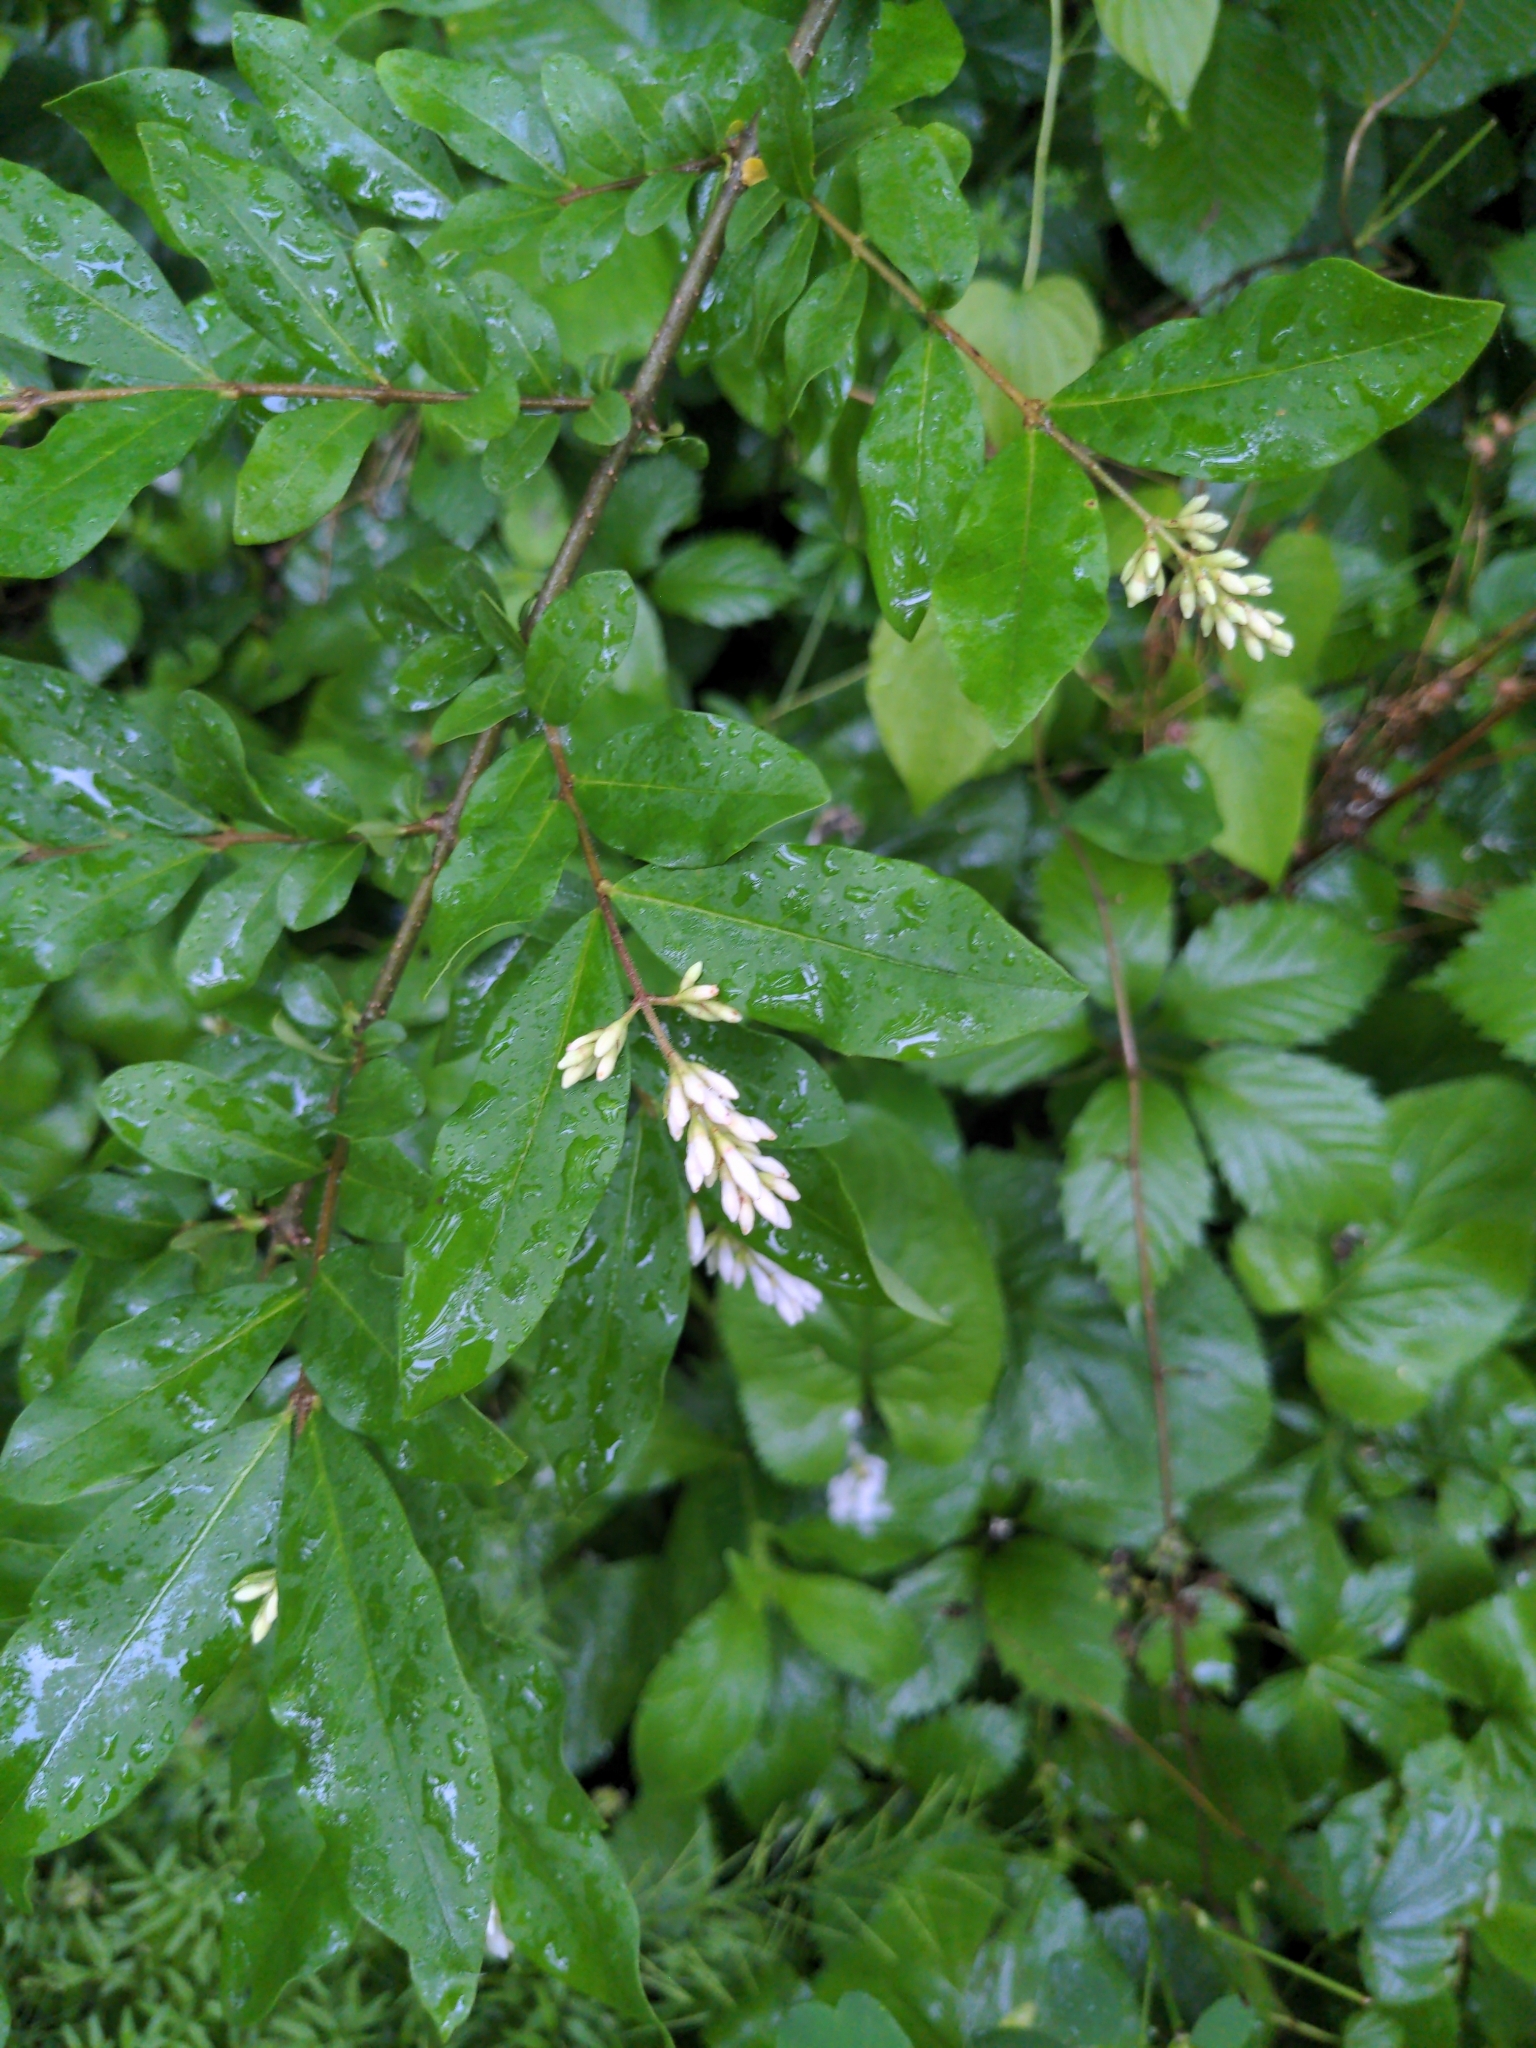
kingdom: Plantae
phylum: Tracheophyta
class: Magnoliopsida
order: Lamiales
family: Oleaceae
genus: Ligustrum
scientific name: Ligustrum obtusifolium
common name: Border privet
